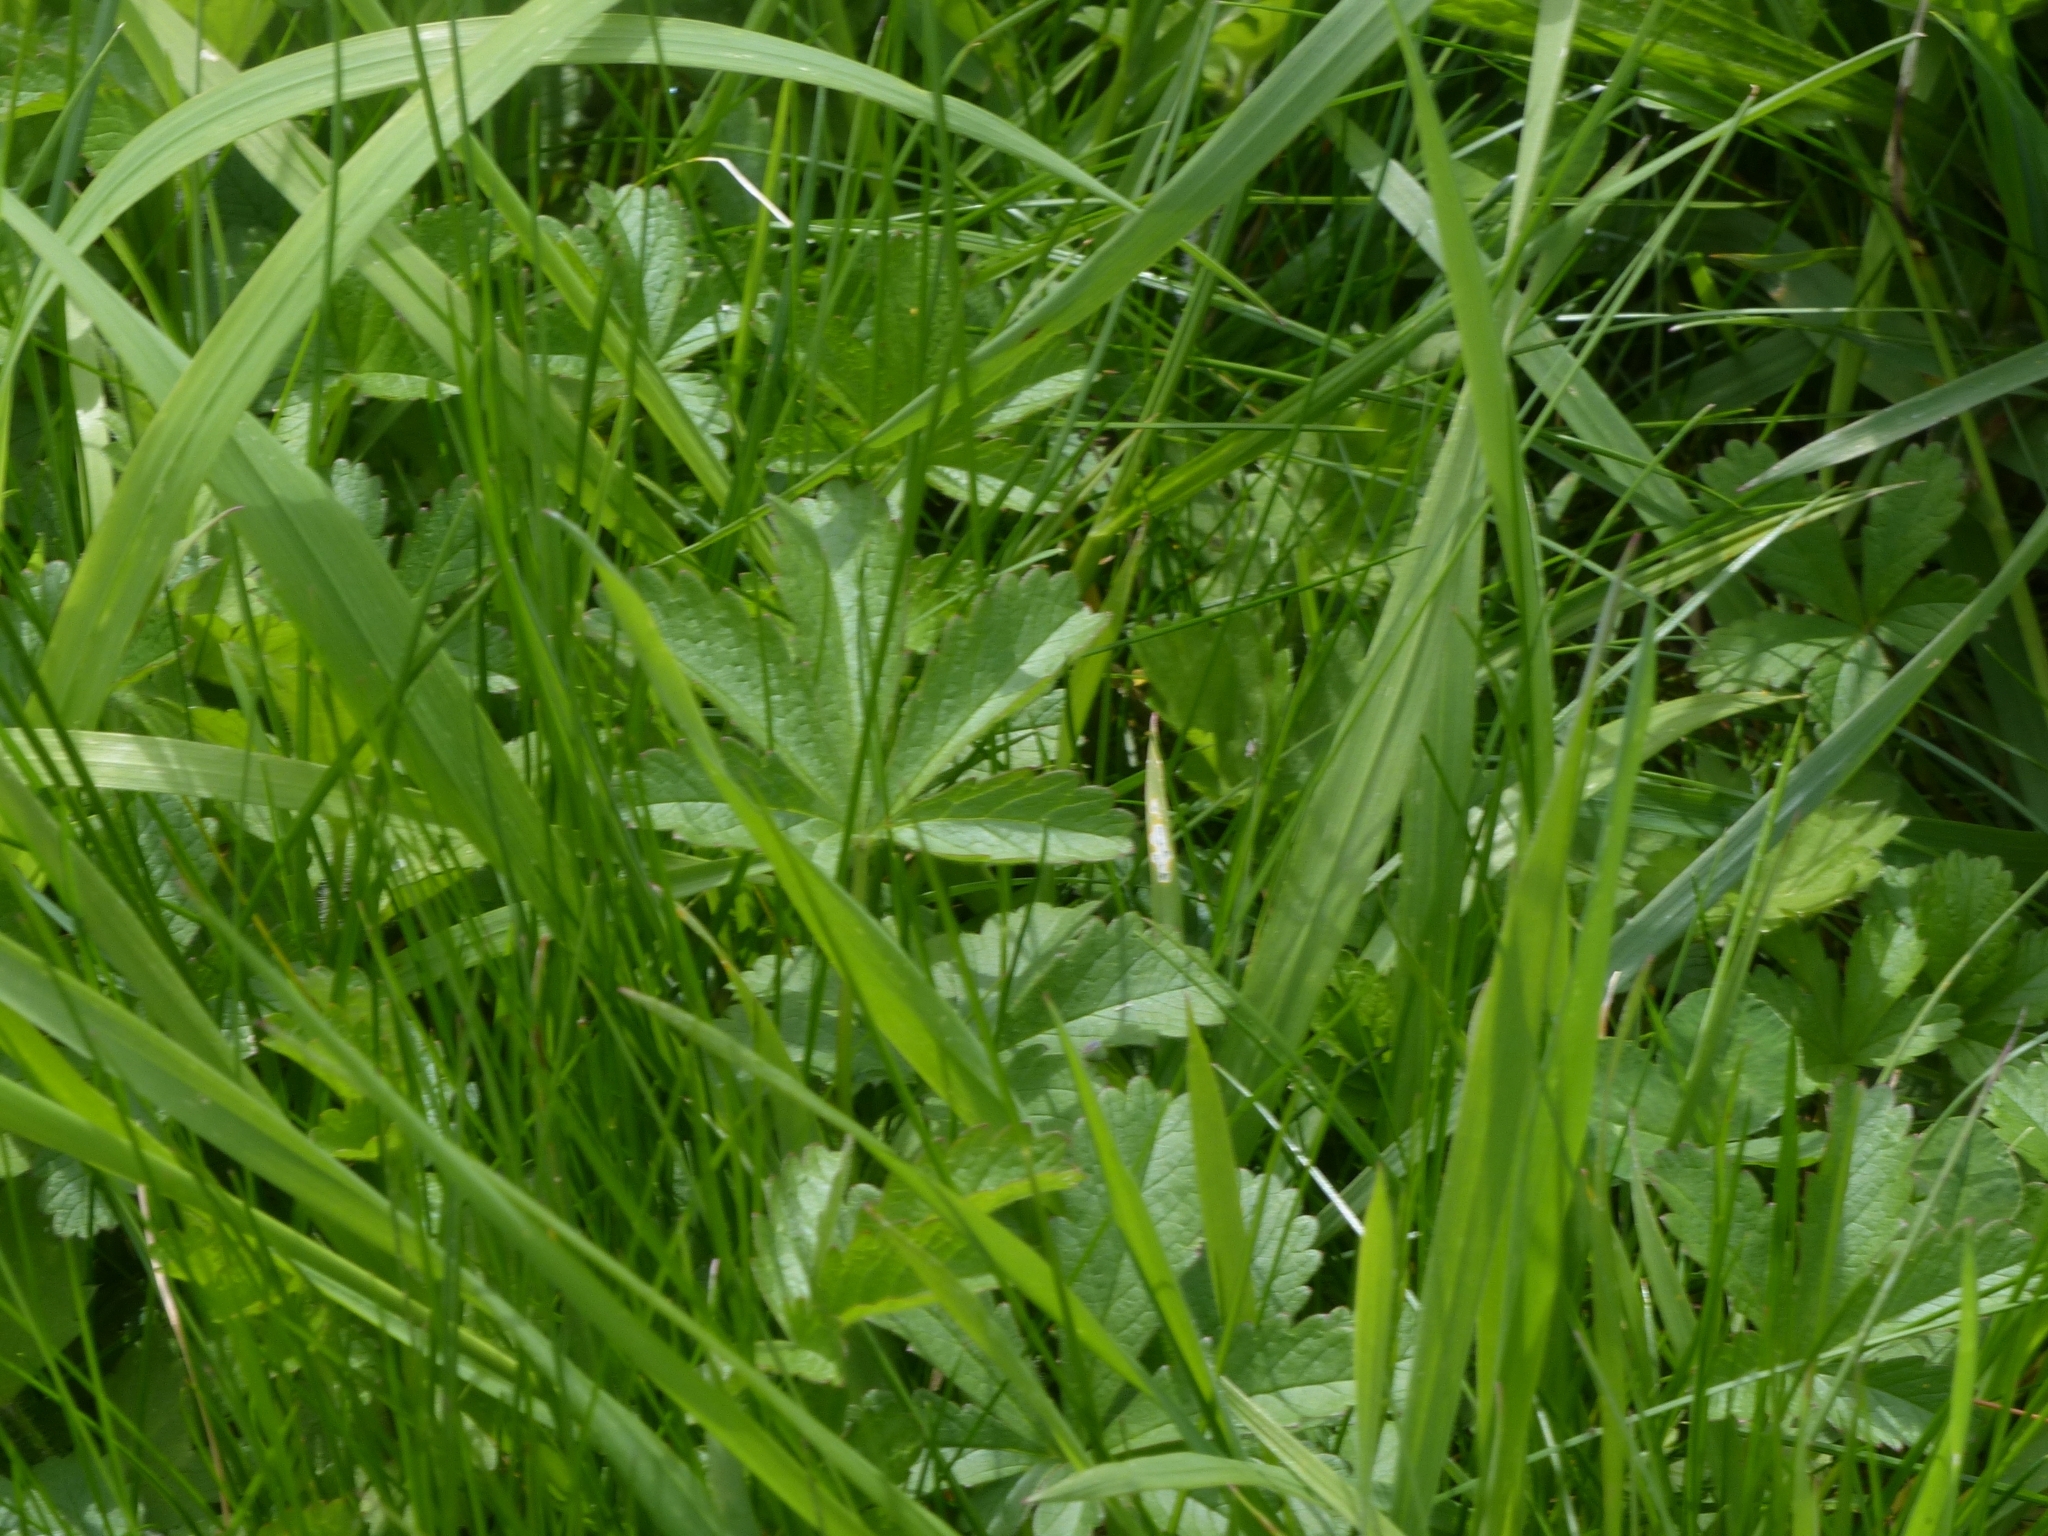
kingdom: Plantae
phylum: Tracheophyta
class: Magnoliopsida
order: Rosales
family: Rosaceae
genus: Potentilla
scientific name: Potentilla reptans
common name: Creeping cinquefoil
